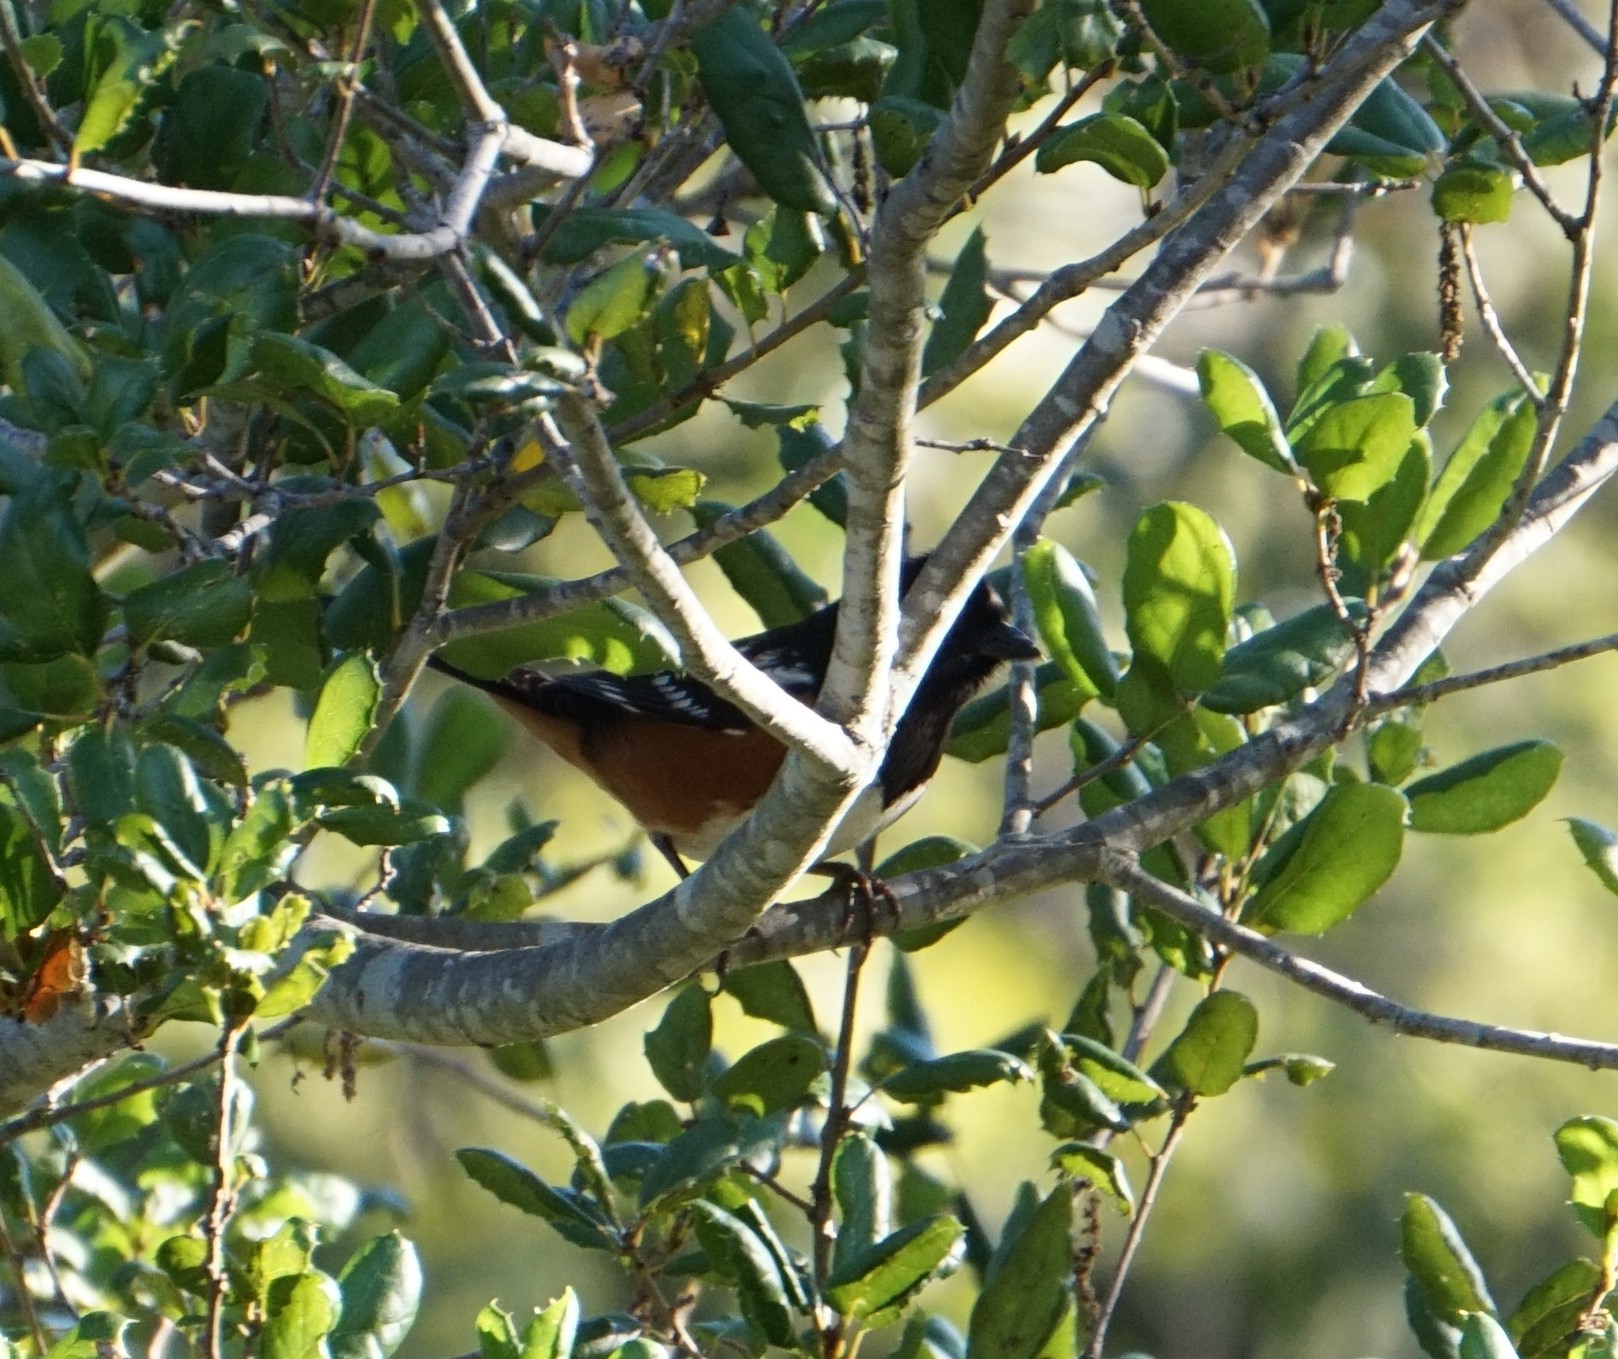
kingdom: Animalia
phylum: Chordata
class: Aves
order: Passeriformes
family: Passerellidae
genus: Pipilo
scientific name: Pipilo maculatus
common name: Spotted towhee
